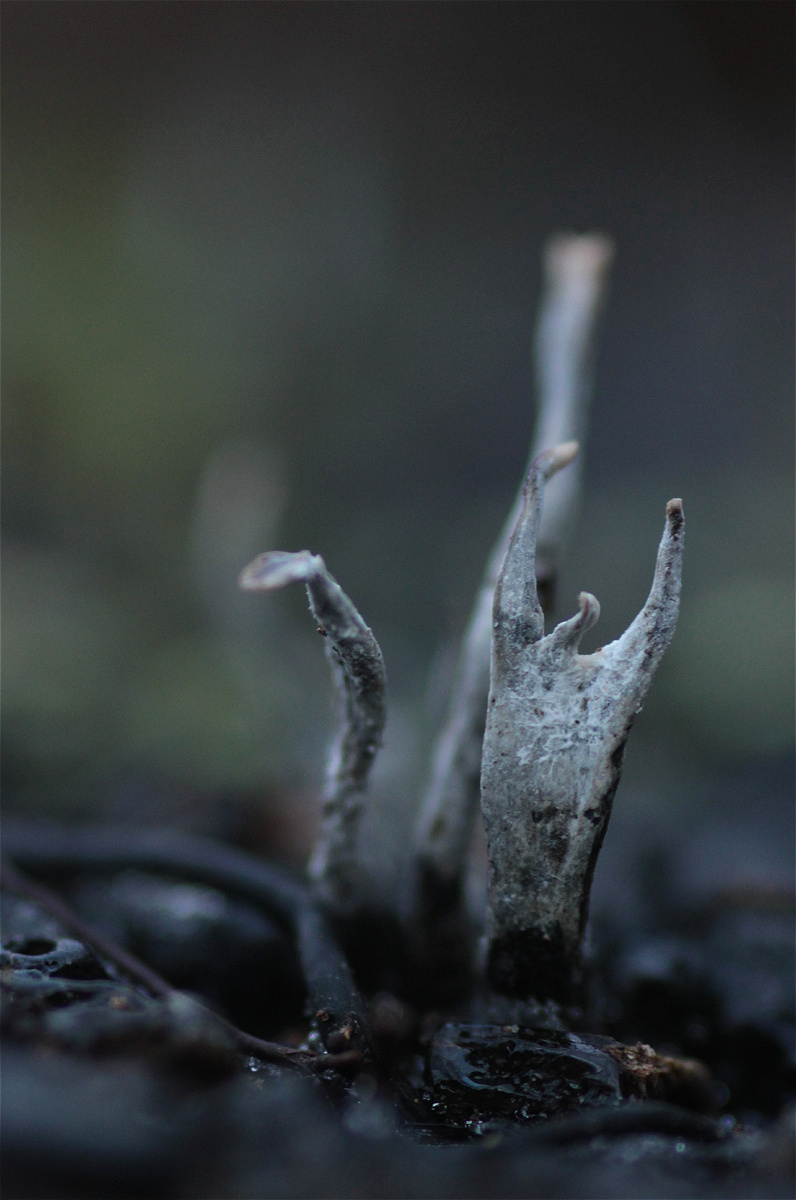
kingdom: Fungi
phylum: Ascomycota
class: Sordariomycetes
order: Xylariales
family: Xylariaceae
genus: Xylaria
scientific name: Xylaria hypoxylon
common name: Candle-snuff fungus
